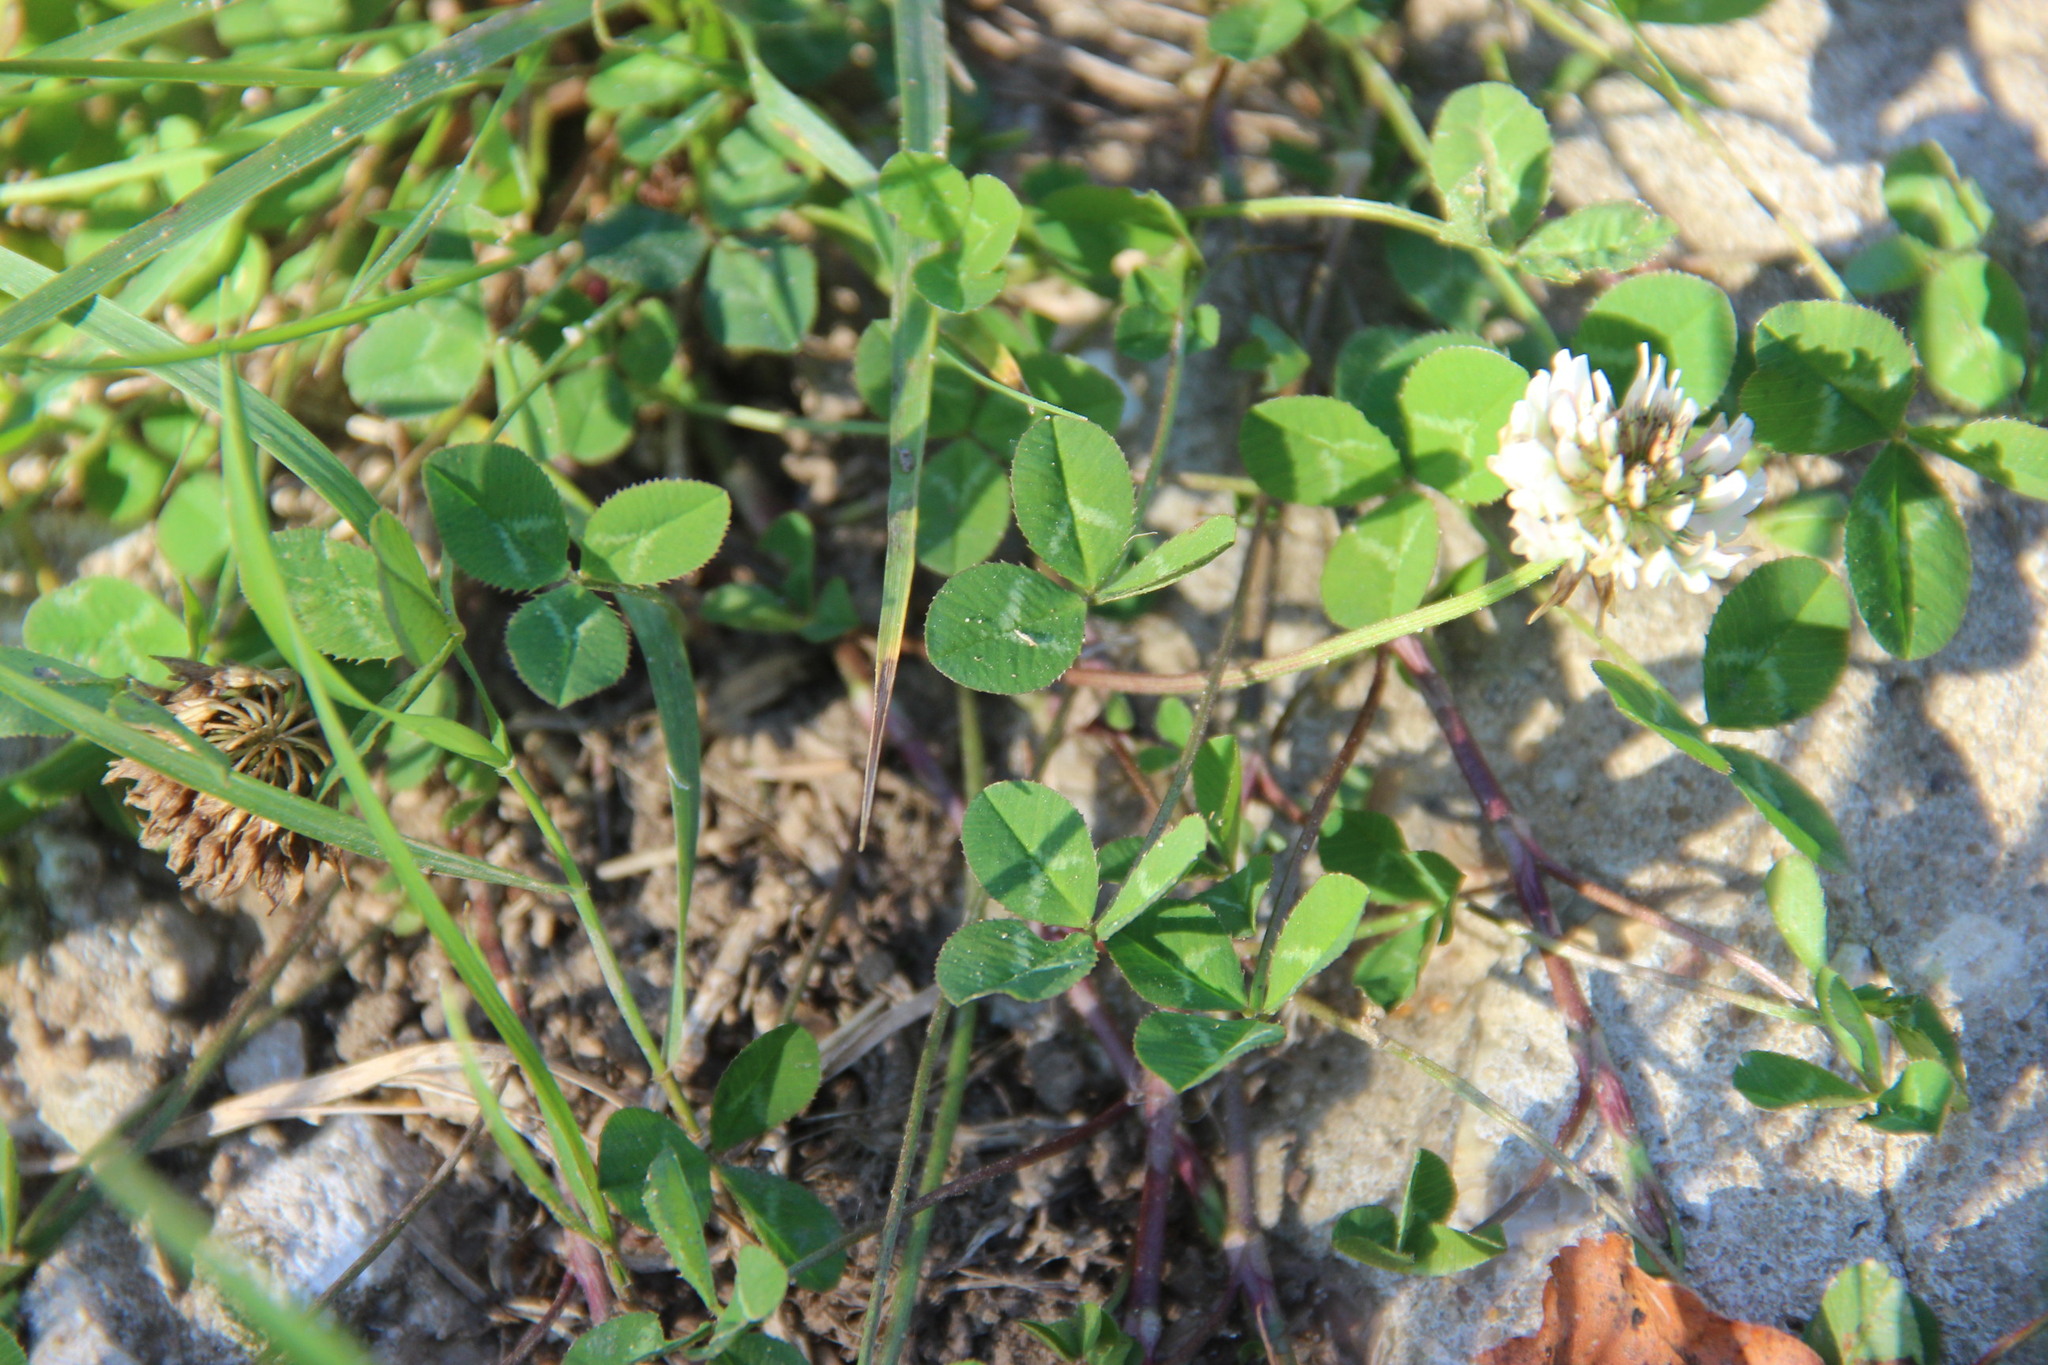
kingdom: Plantae
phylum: Tracheophyta
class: Magnoliopsida
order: Fabales
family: Fabaceae
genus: Trifolium
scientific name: Trifolium repens
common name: White clover
